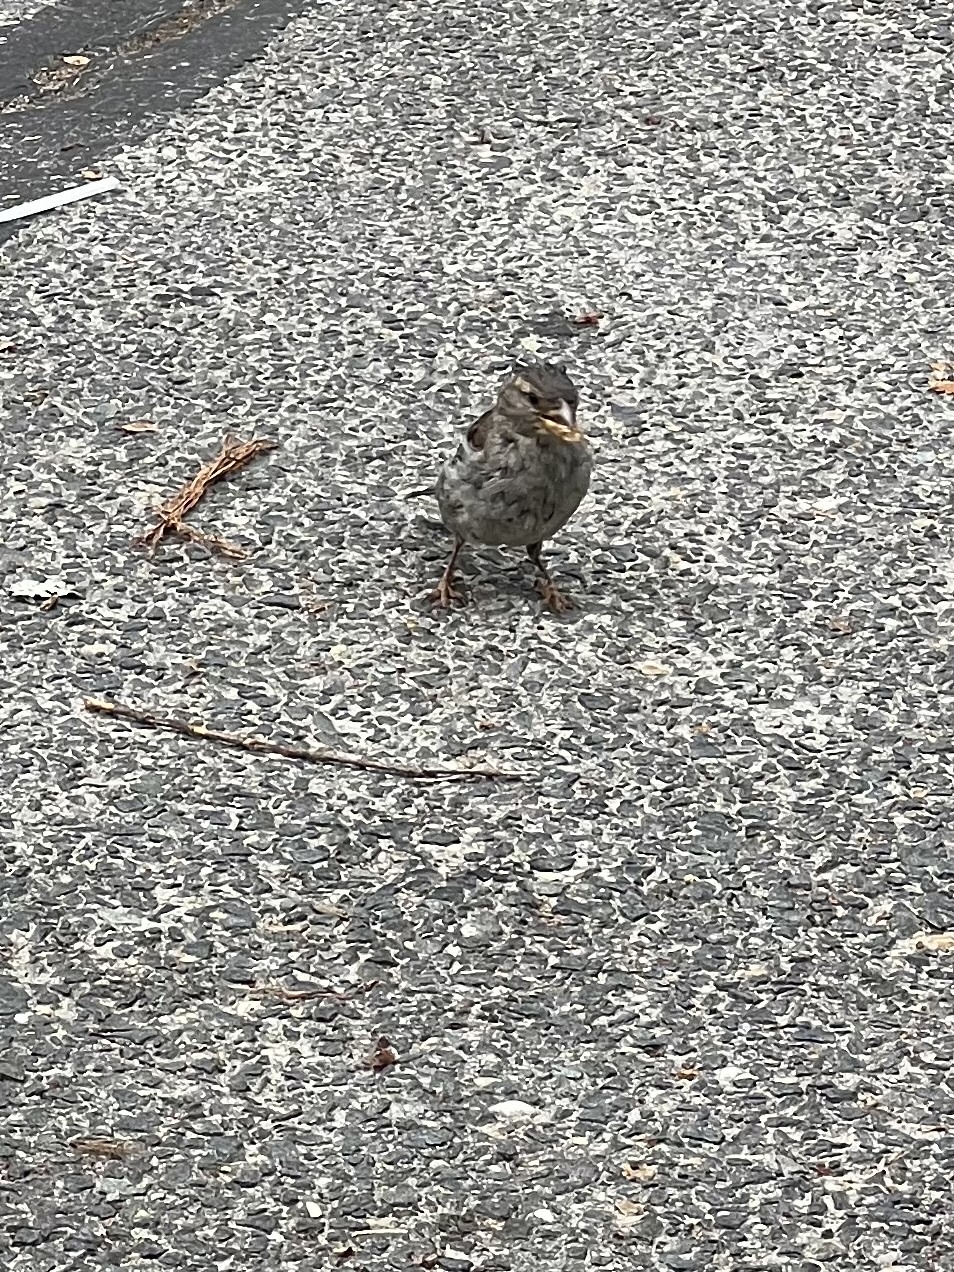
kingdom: Animalia
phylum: Chordata
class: Aves
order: Passeriformes
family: Passeridae
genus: Passer
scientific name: Passer domesticus
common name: House sparrow
